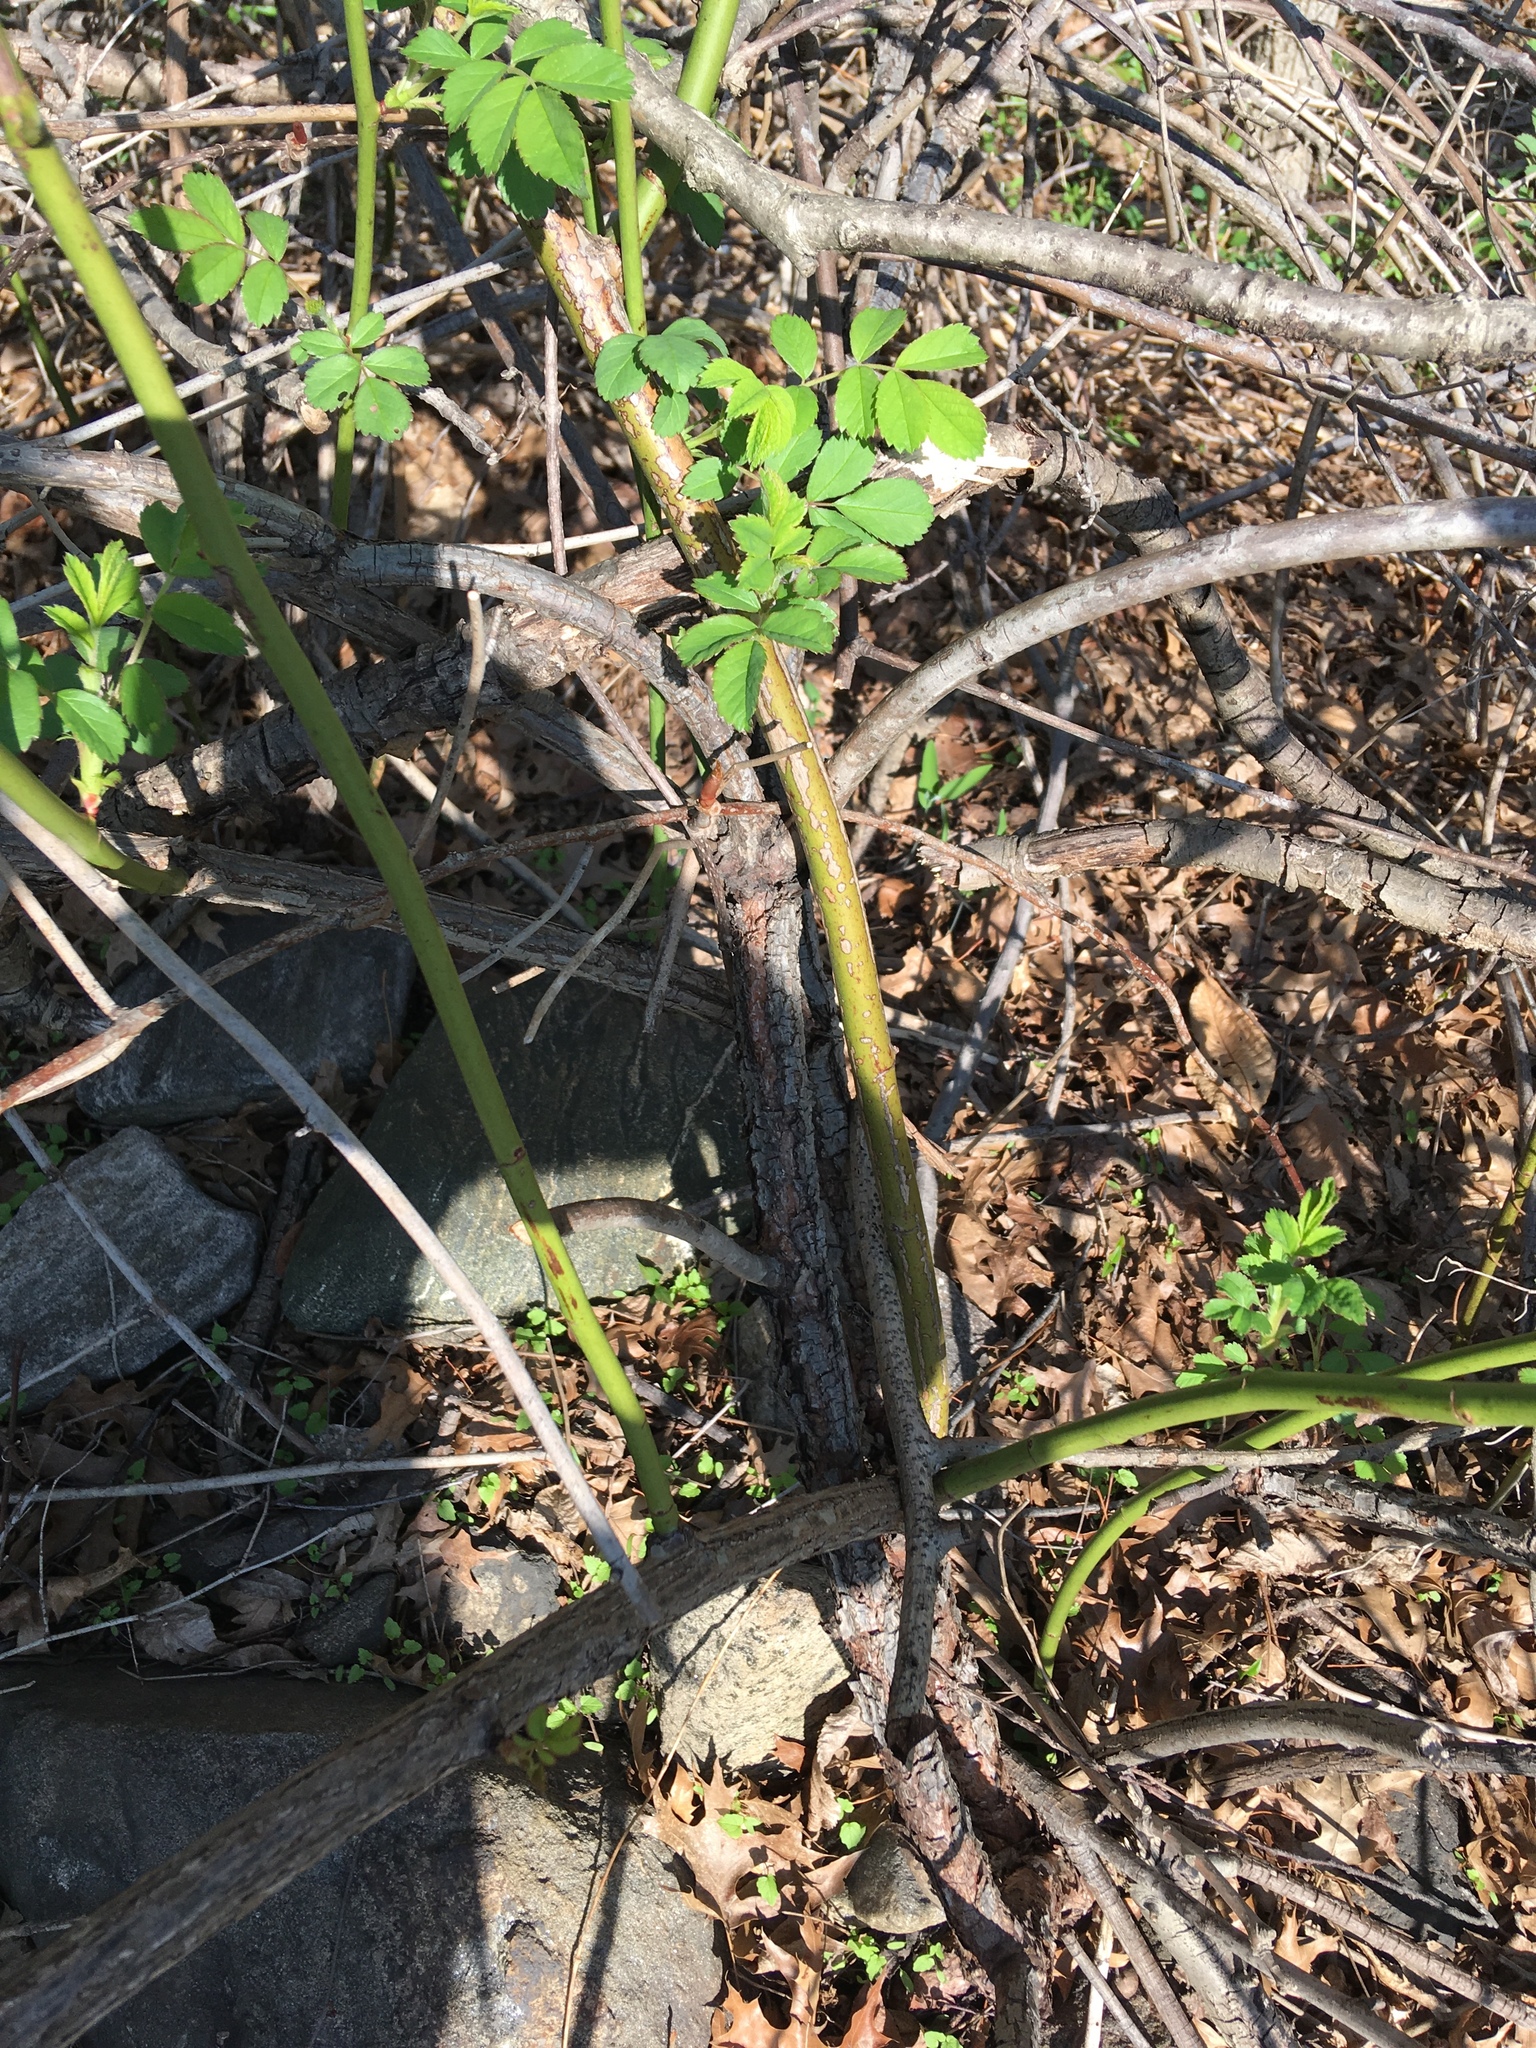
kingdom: Plantae
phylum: Tracheophyta
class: Magnoliopsida
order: Rosales
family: Rosaceae
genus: Rosa
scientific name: Rosa multiflora
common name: Multiflora rose
